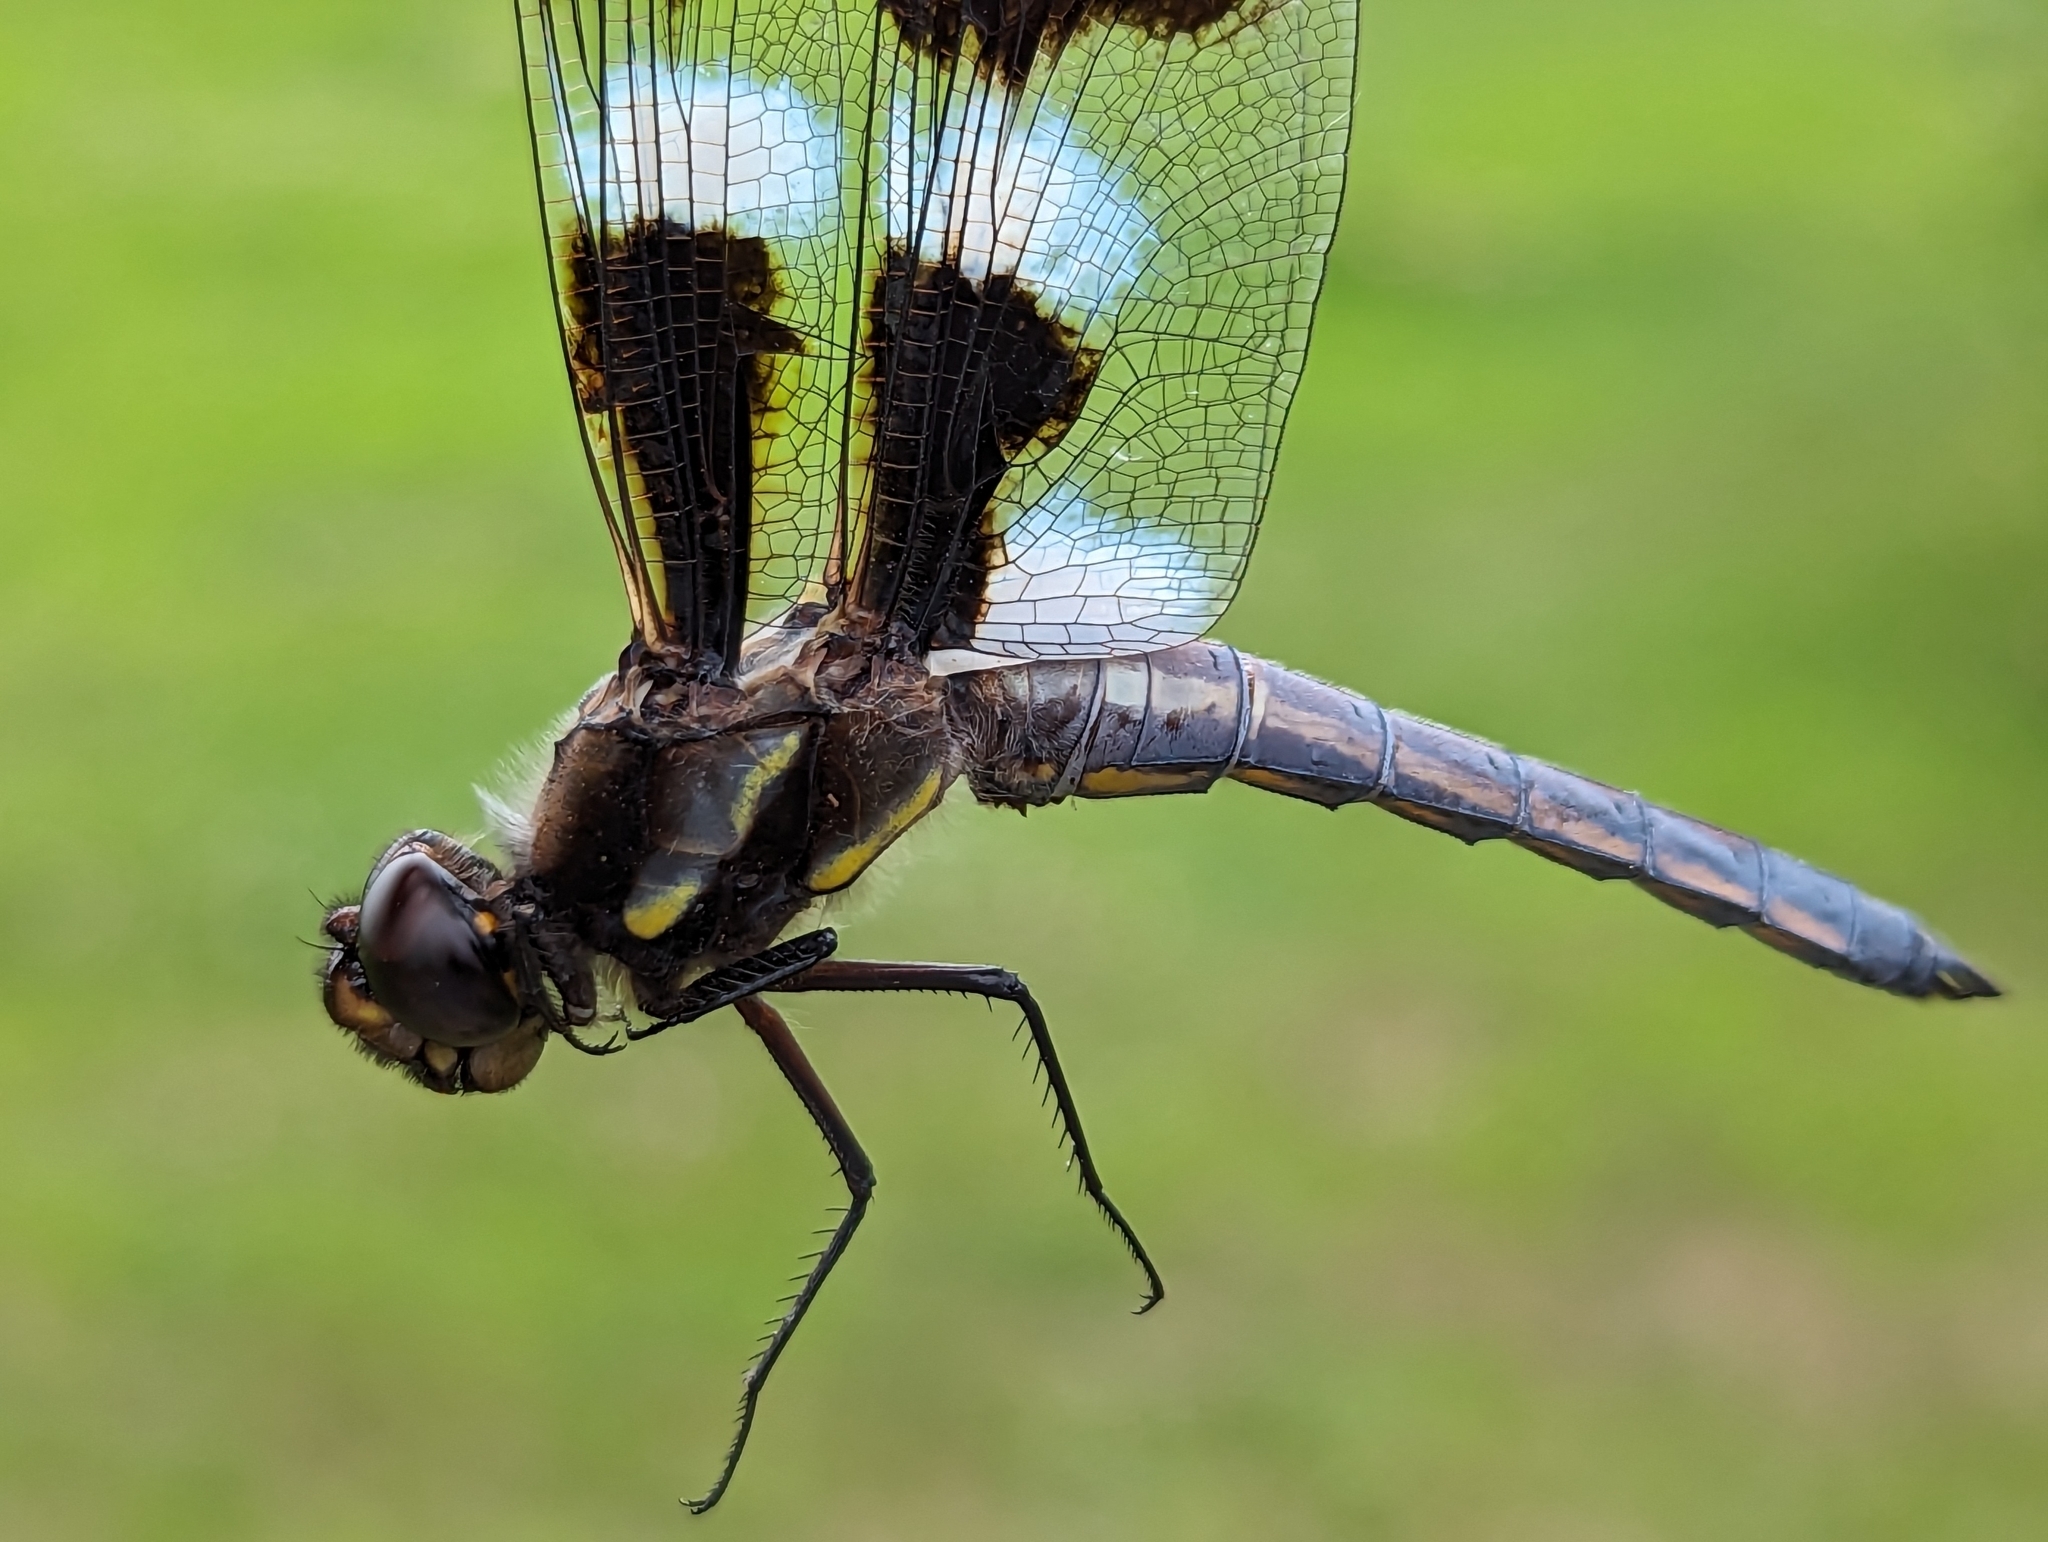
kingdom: Animalia
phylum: Arthropoda
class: Insecta
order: Odonata
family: Libellulidae
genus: Libellula
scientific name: Libellula pulchella
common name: Twelve-spotted skimmer
